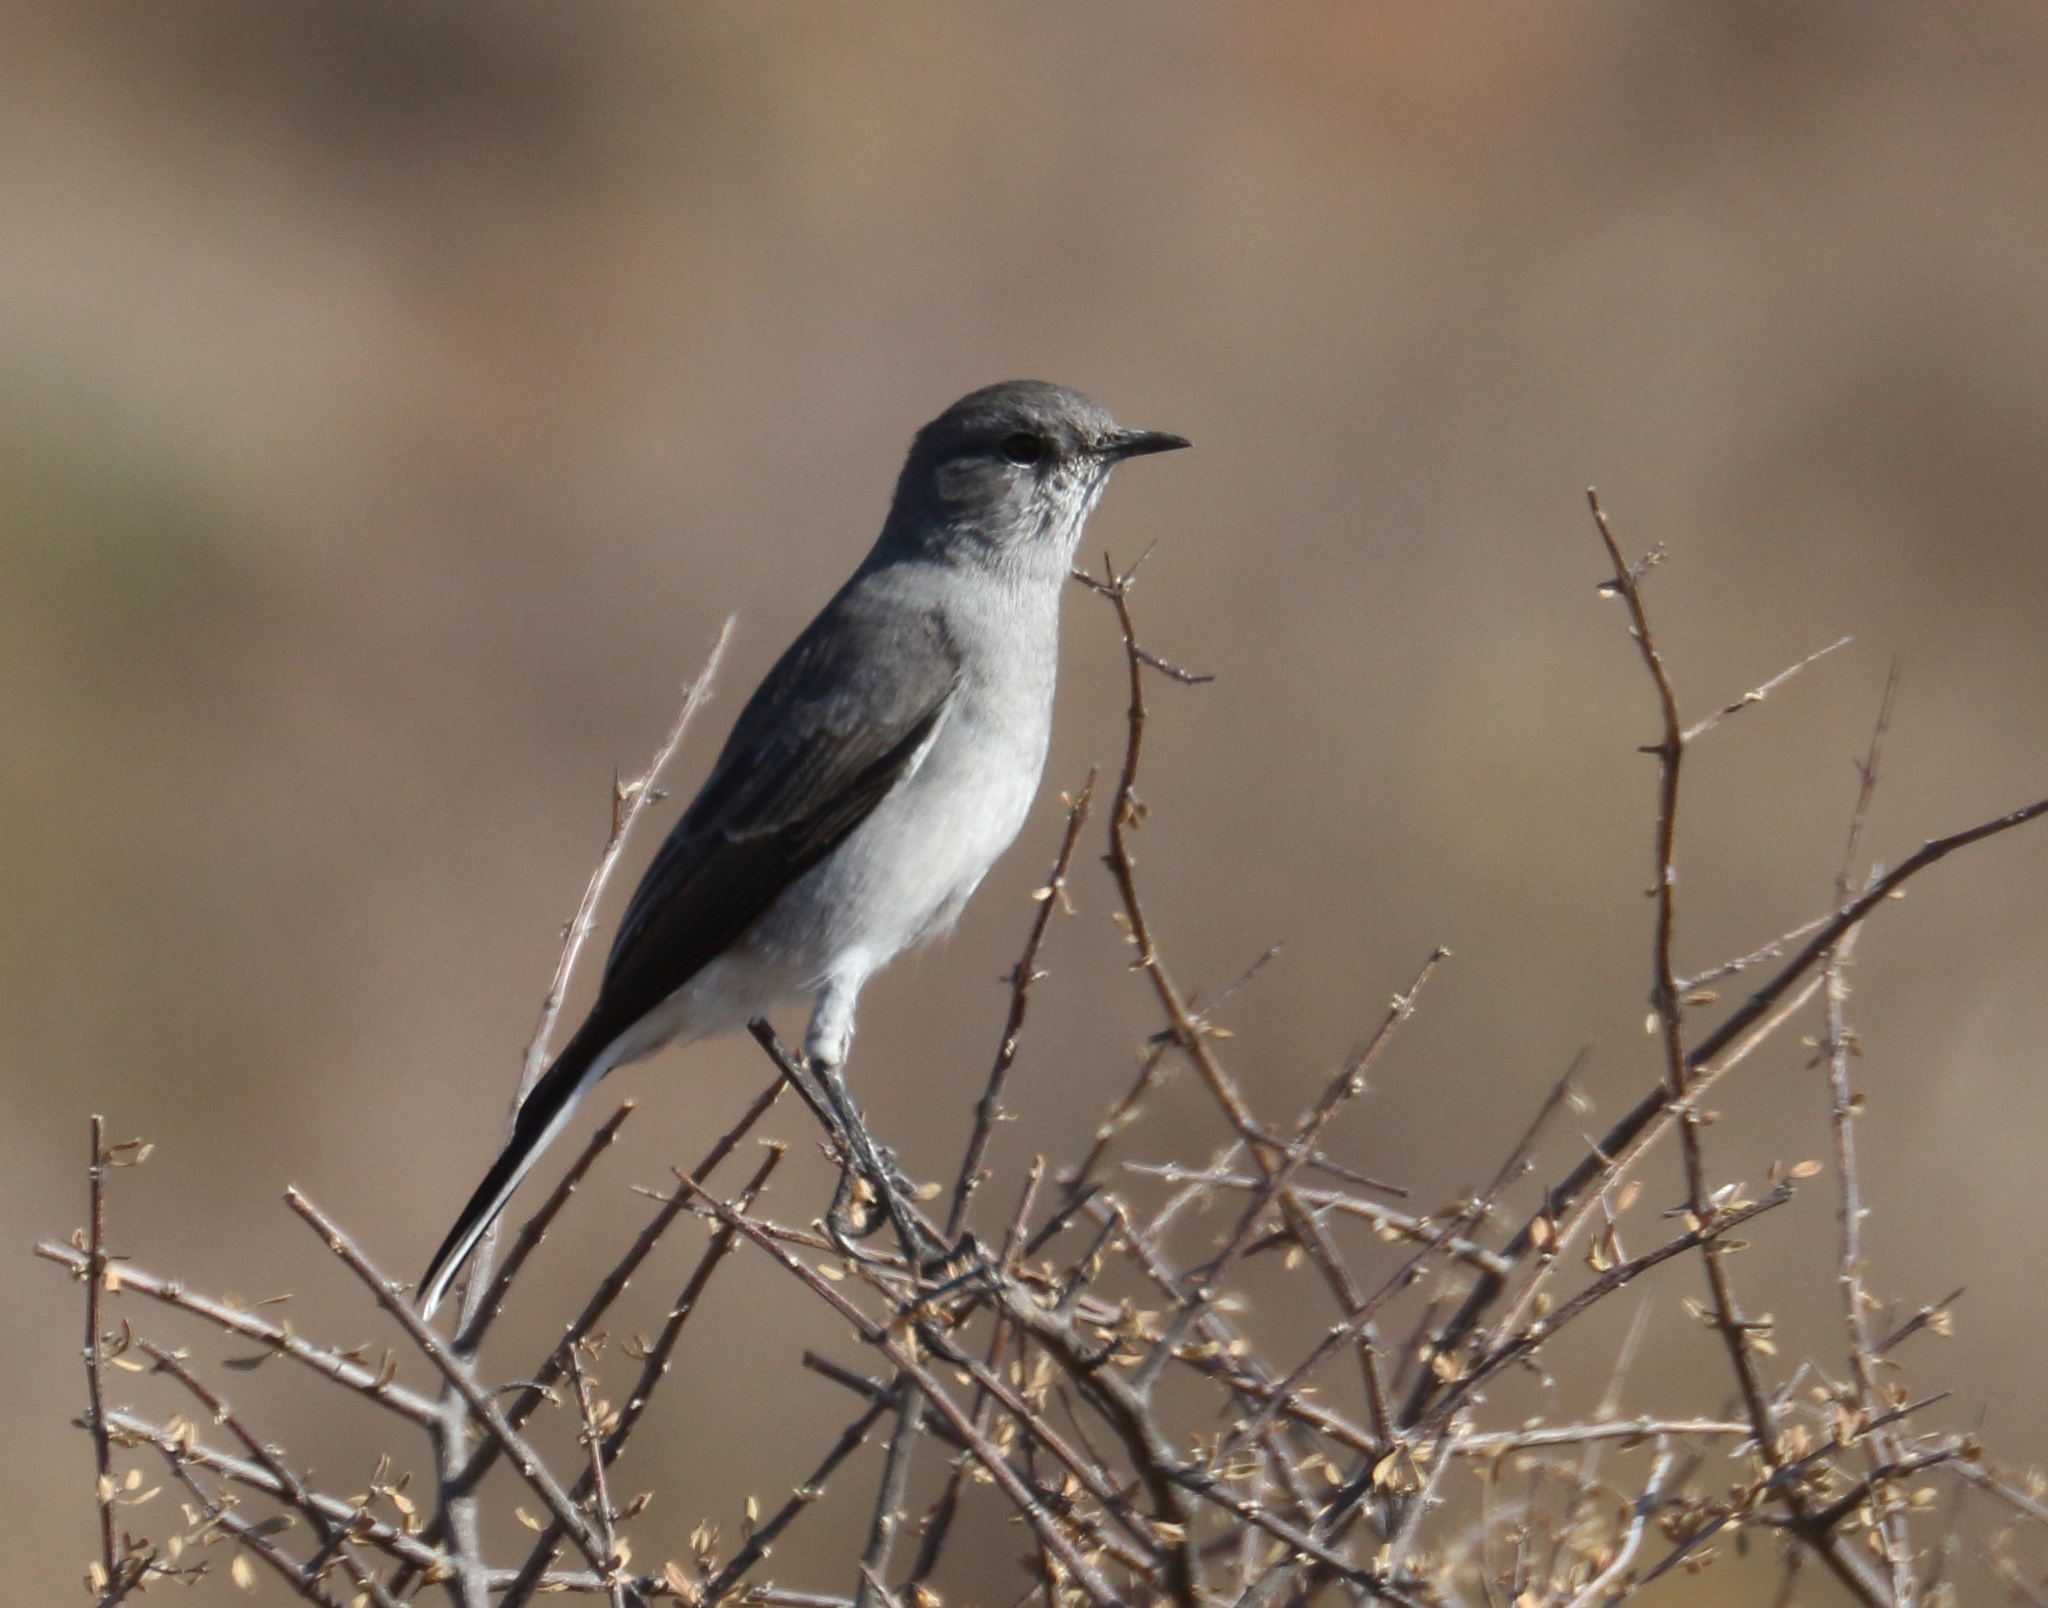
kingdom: Animalia
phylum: Chordata
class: Aves
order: Passeriformes
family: Muscicapidae
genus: Emarginata
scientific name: Emarginata schlegelii
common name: Karoo chat
